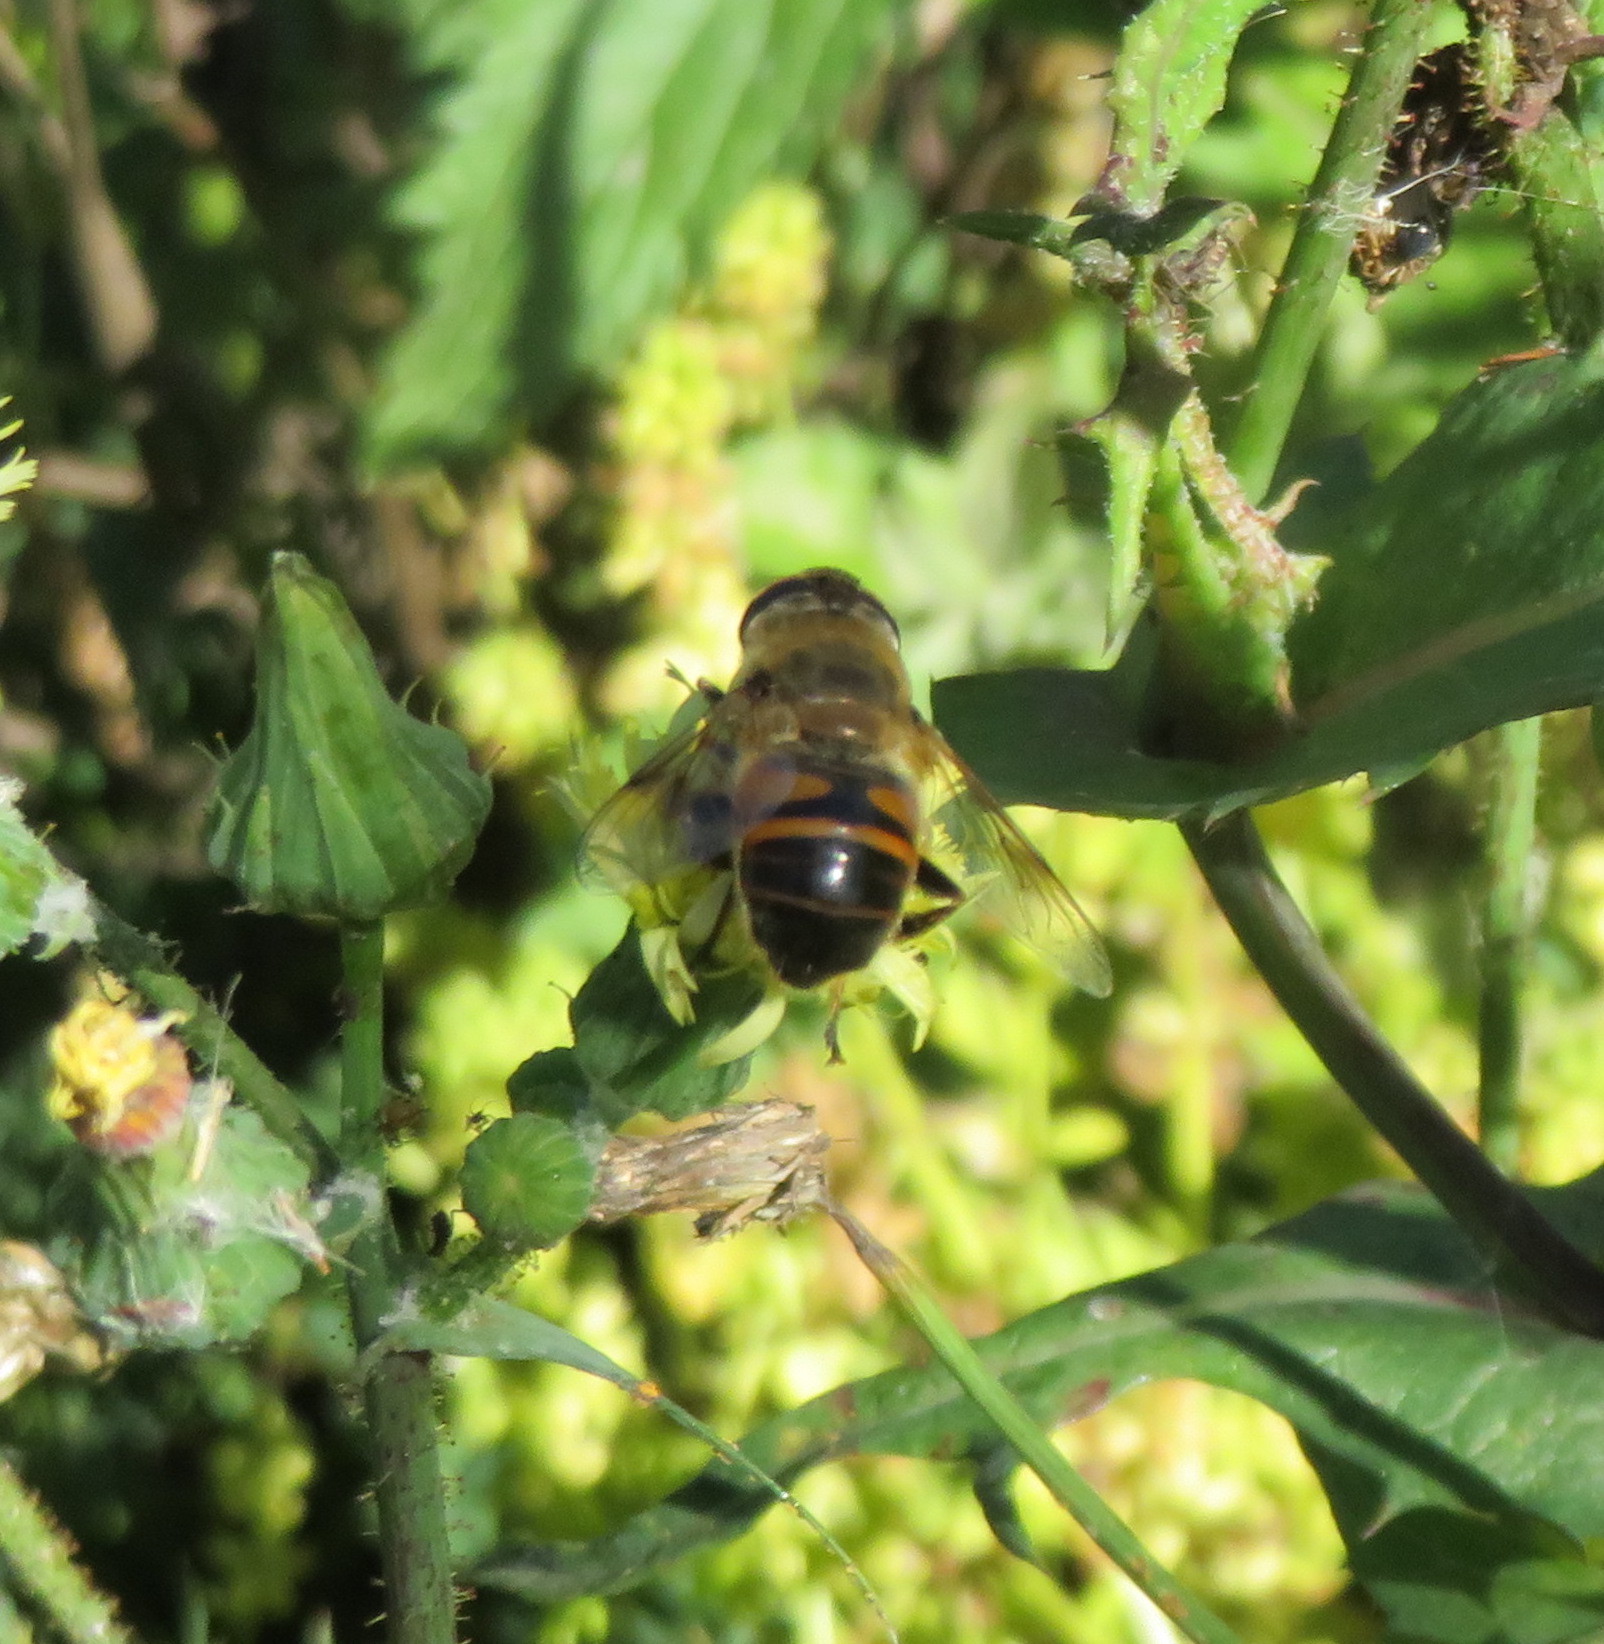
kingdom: Animalia
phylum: Arthropoda
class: Insecta
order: Diptera
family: Syrphidae
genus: Eristalis
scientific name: Eristalis tenax
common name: Drone fly
